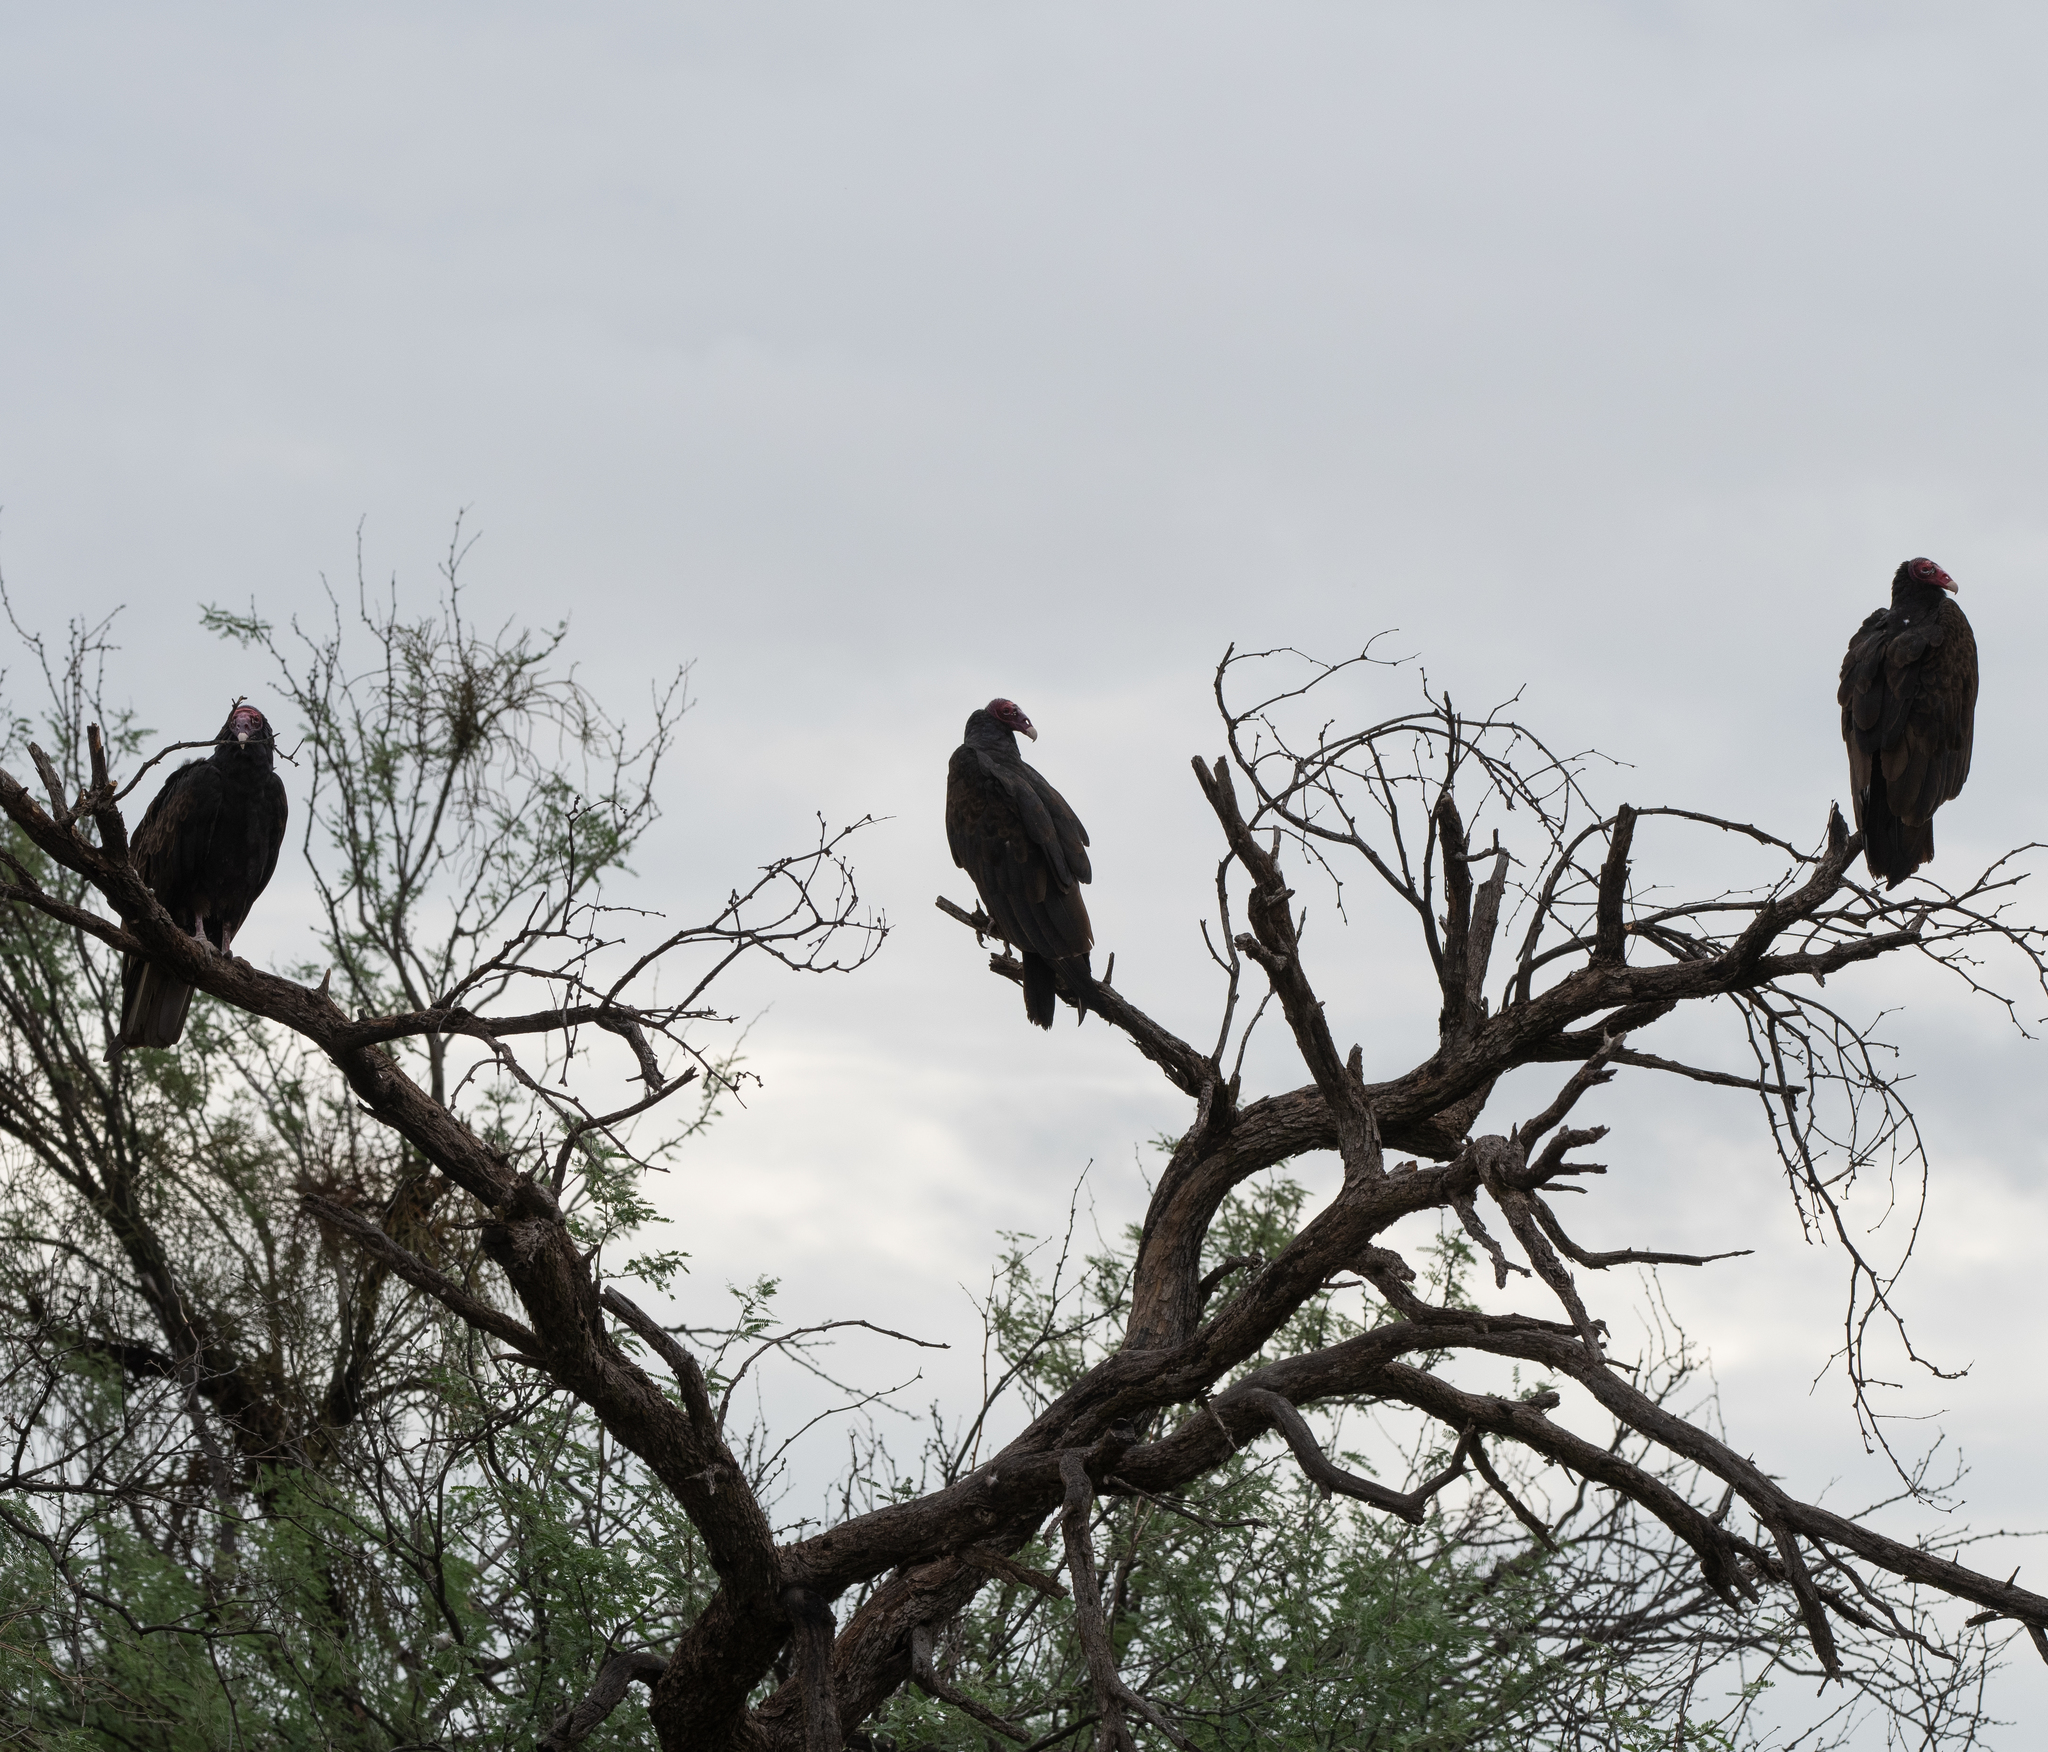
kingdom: Animalia
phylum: Chordata
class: Aves
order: Accipitriformes
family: Cathartidae
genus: Cathartes
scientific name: Cathartes aura
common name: Turkey vulture
